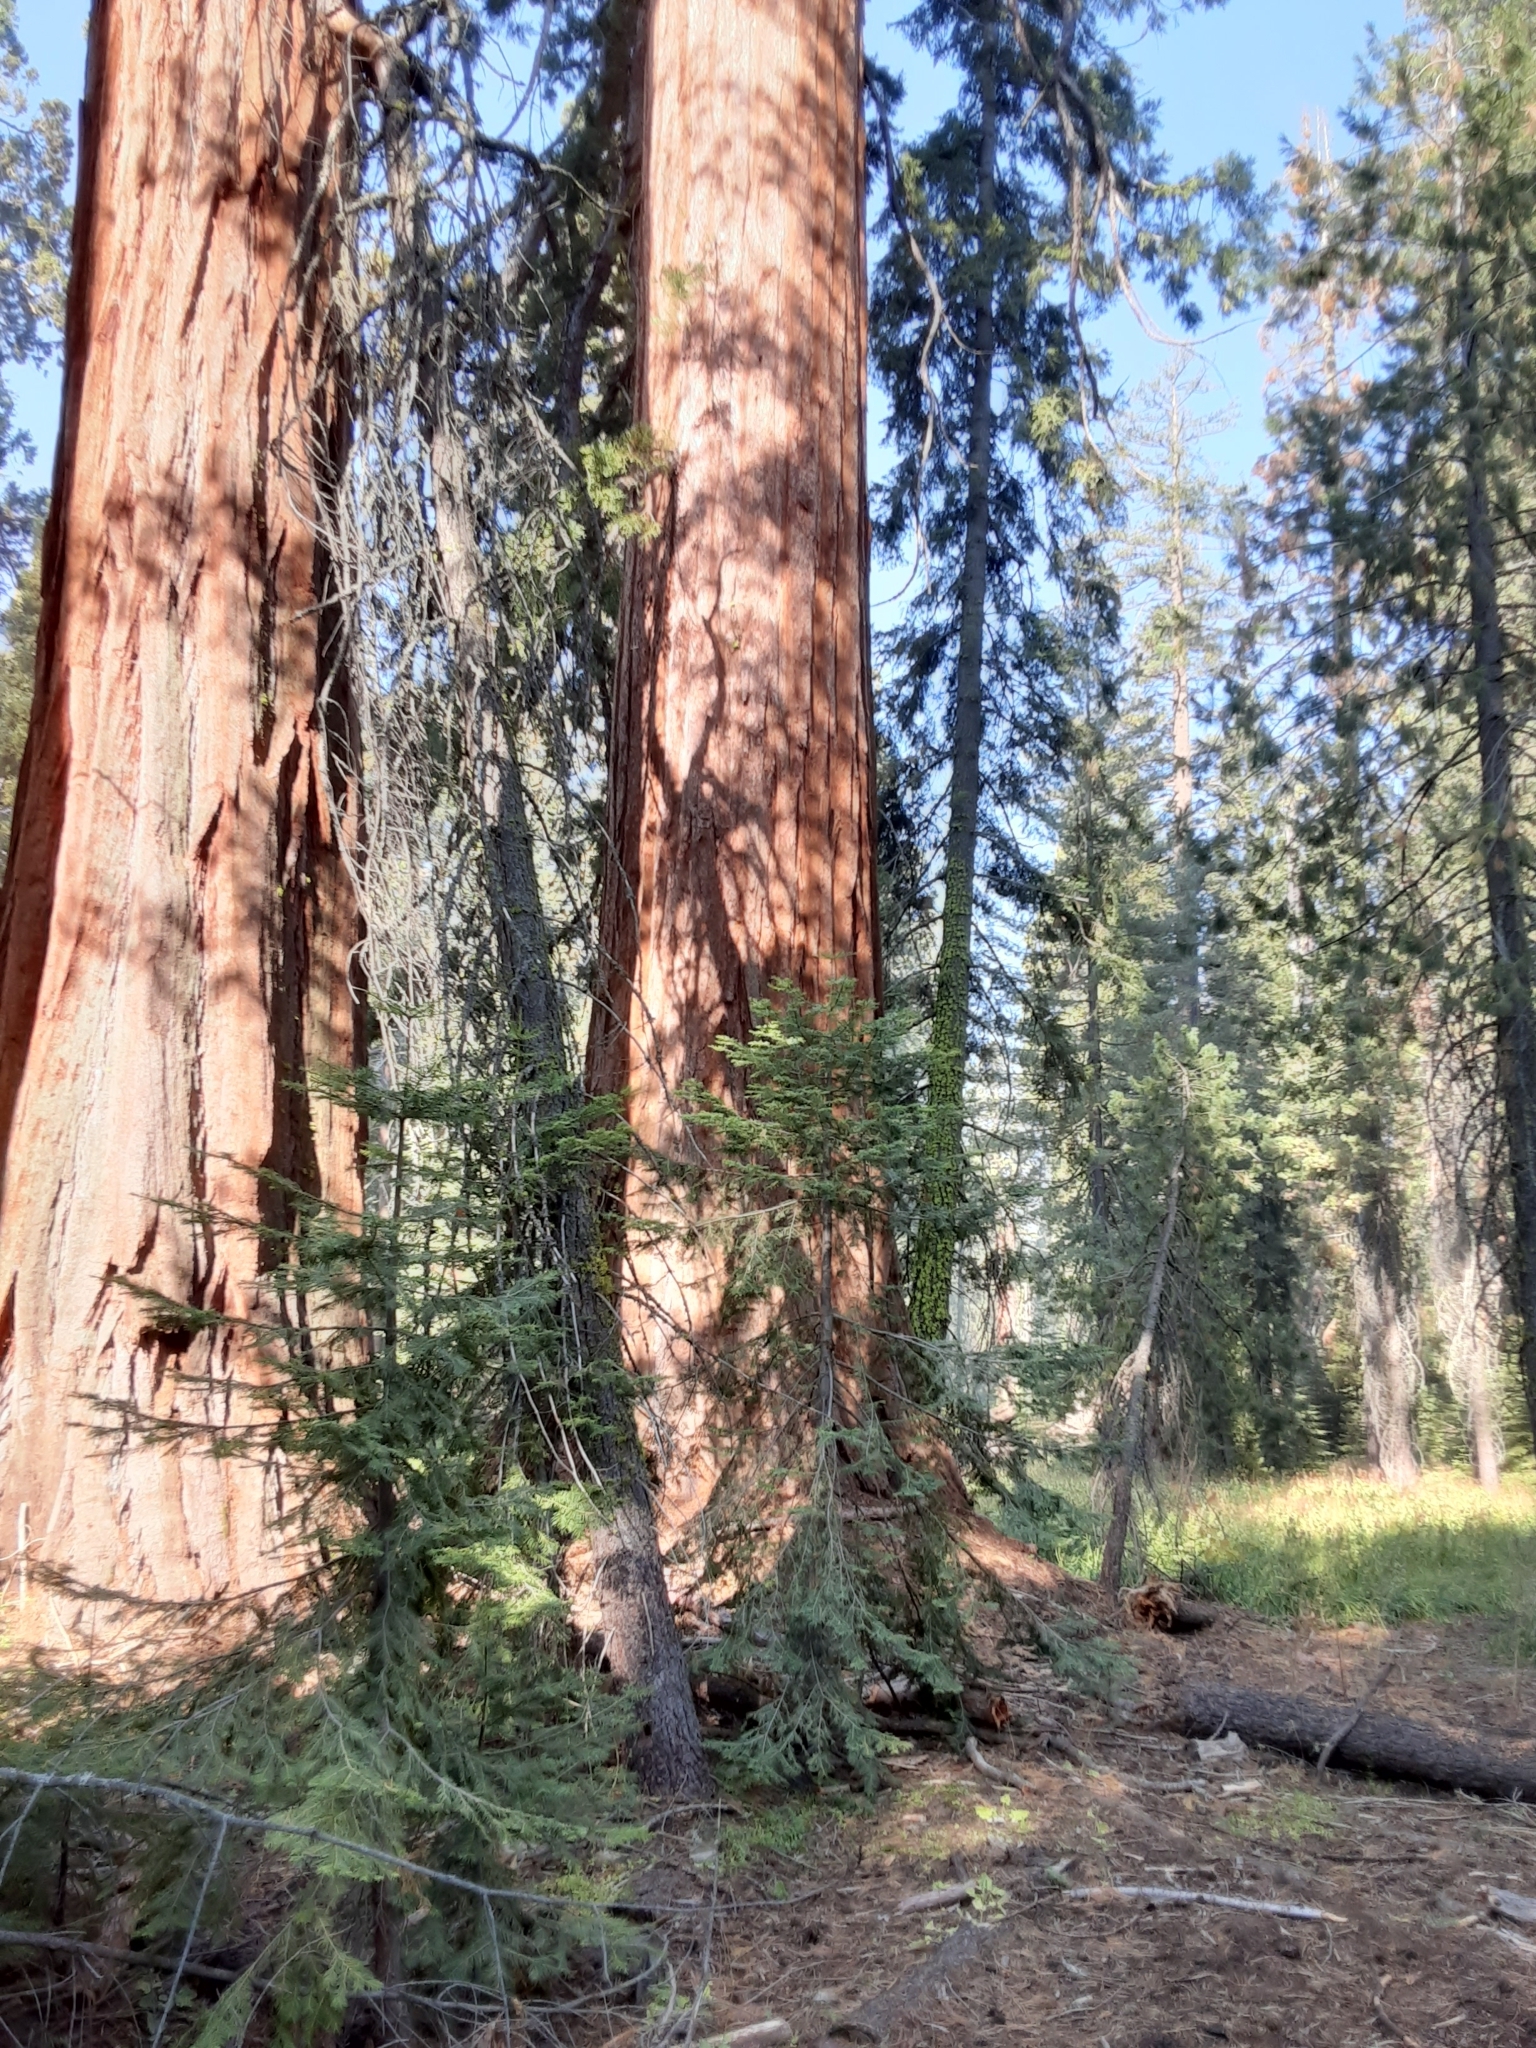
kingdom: Plantae
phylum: Tracheophyta
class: Pinopsida
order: Pinales
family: Cupressaceae
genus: Sequoiadendron
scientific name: Sequoiadendron giganteum
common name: Wellingtonia
